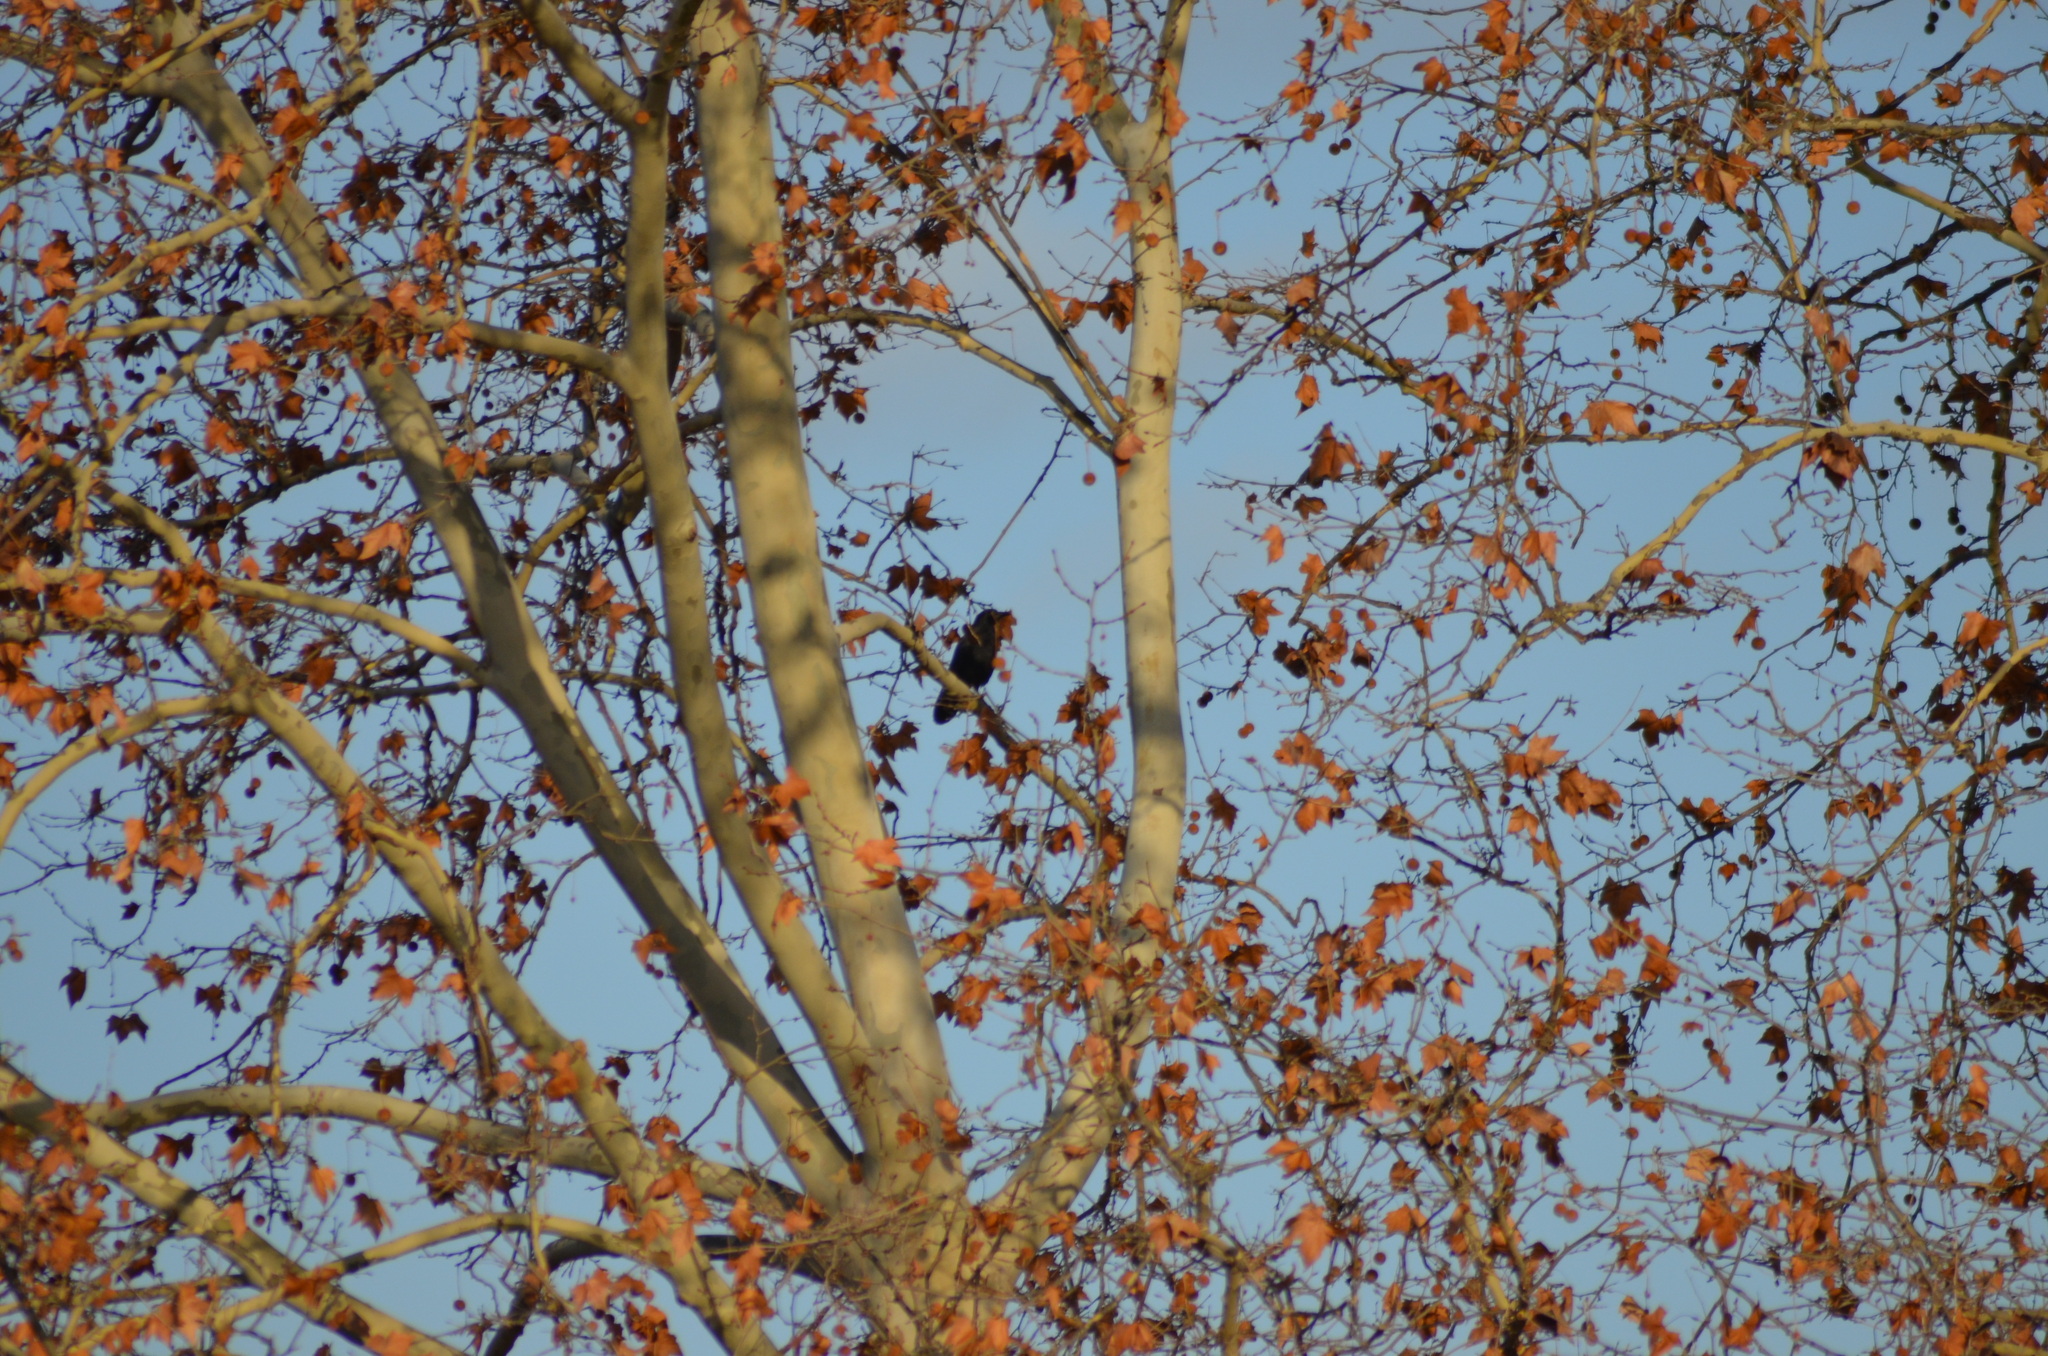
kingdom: Animalia
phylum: Chordata
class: Aves
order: Passeriformes
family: Corvidae
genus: Corvus
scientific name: Corvus corone
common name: Carrion crow
